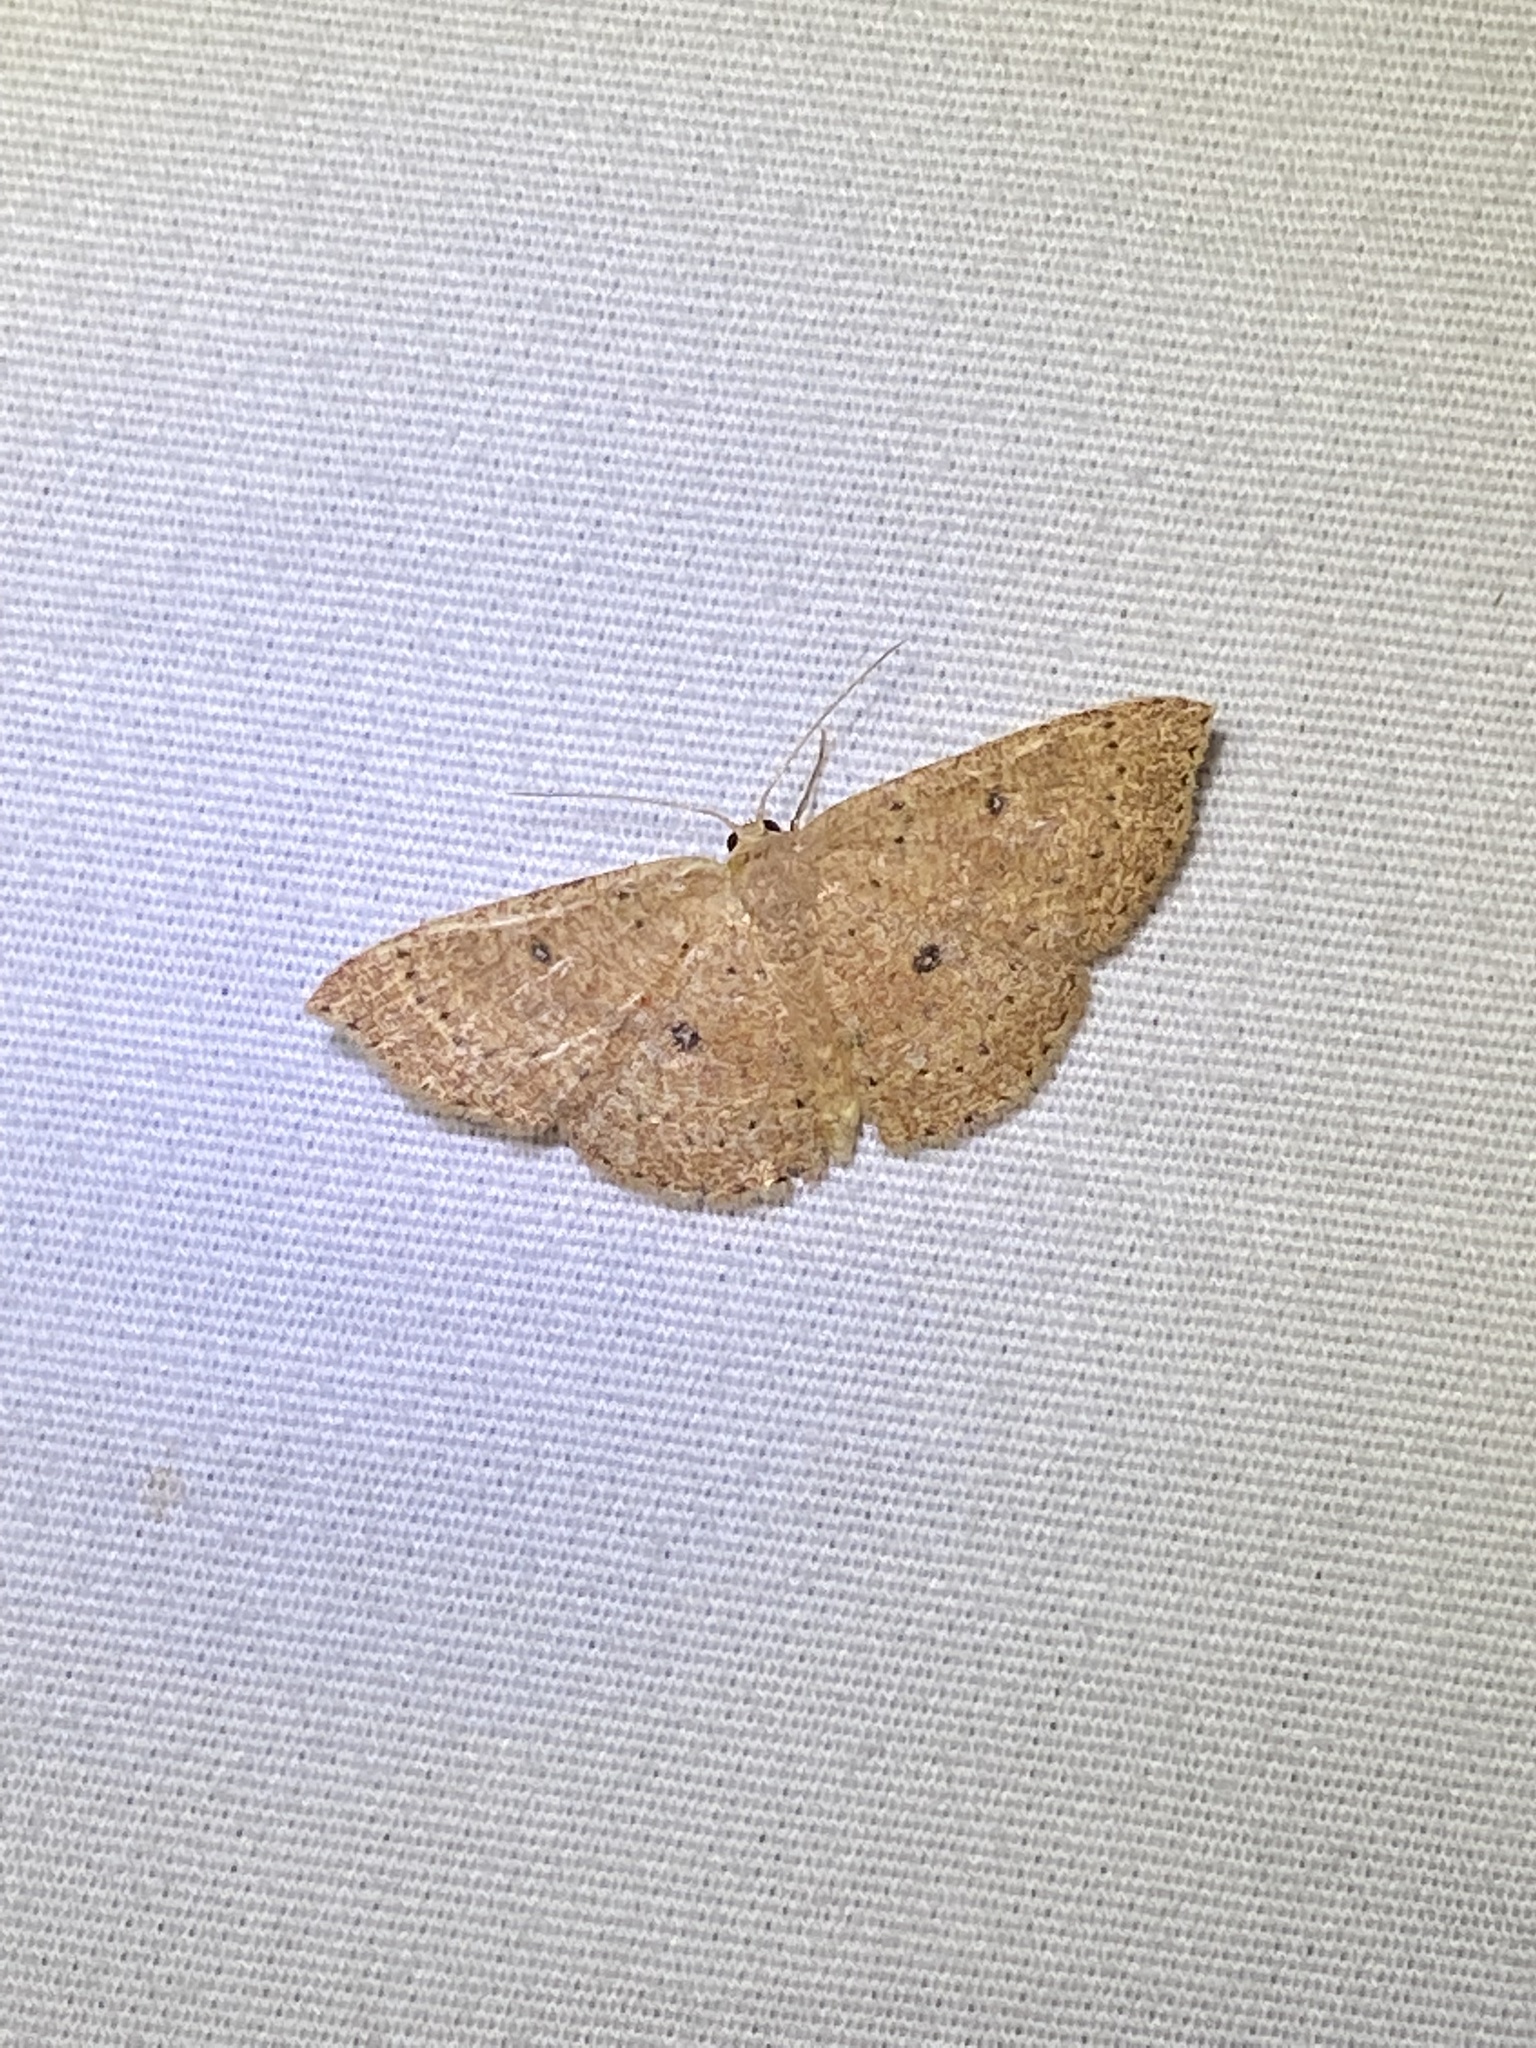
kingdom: Animalia
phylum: Arthropoda
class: Insecta
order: Lepidoptera
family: Geometridae
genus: Cyclophora
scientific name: Cyclophora packardi
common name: Packard's wave
